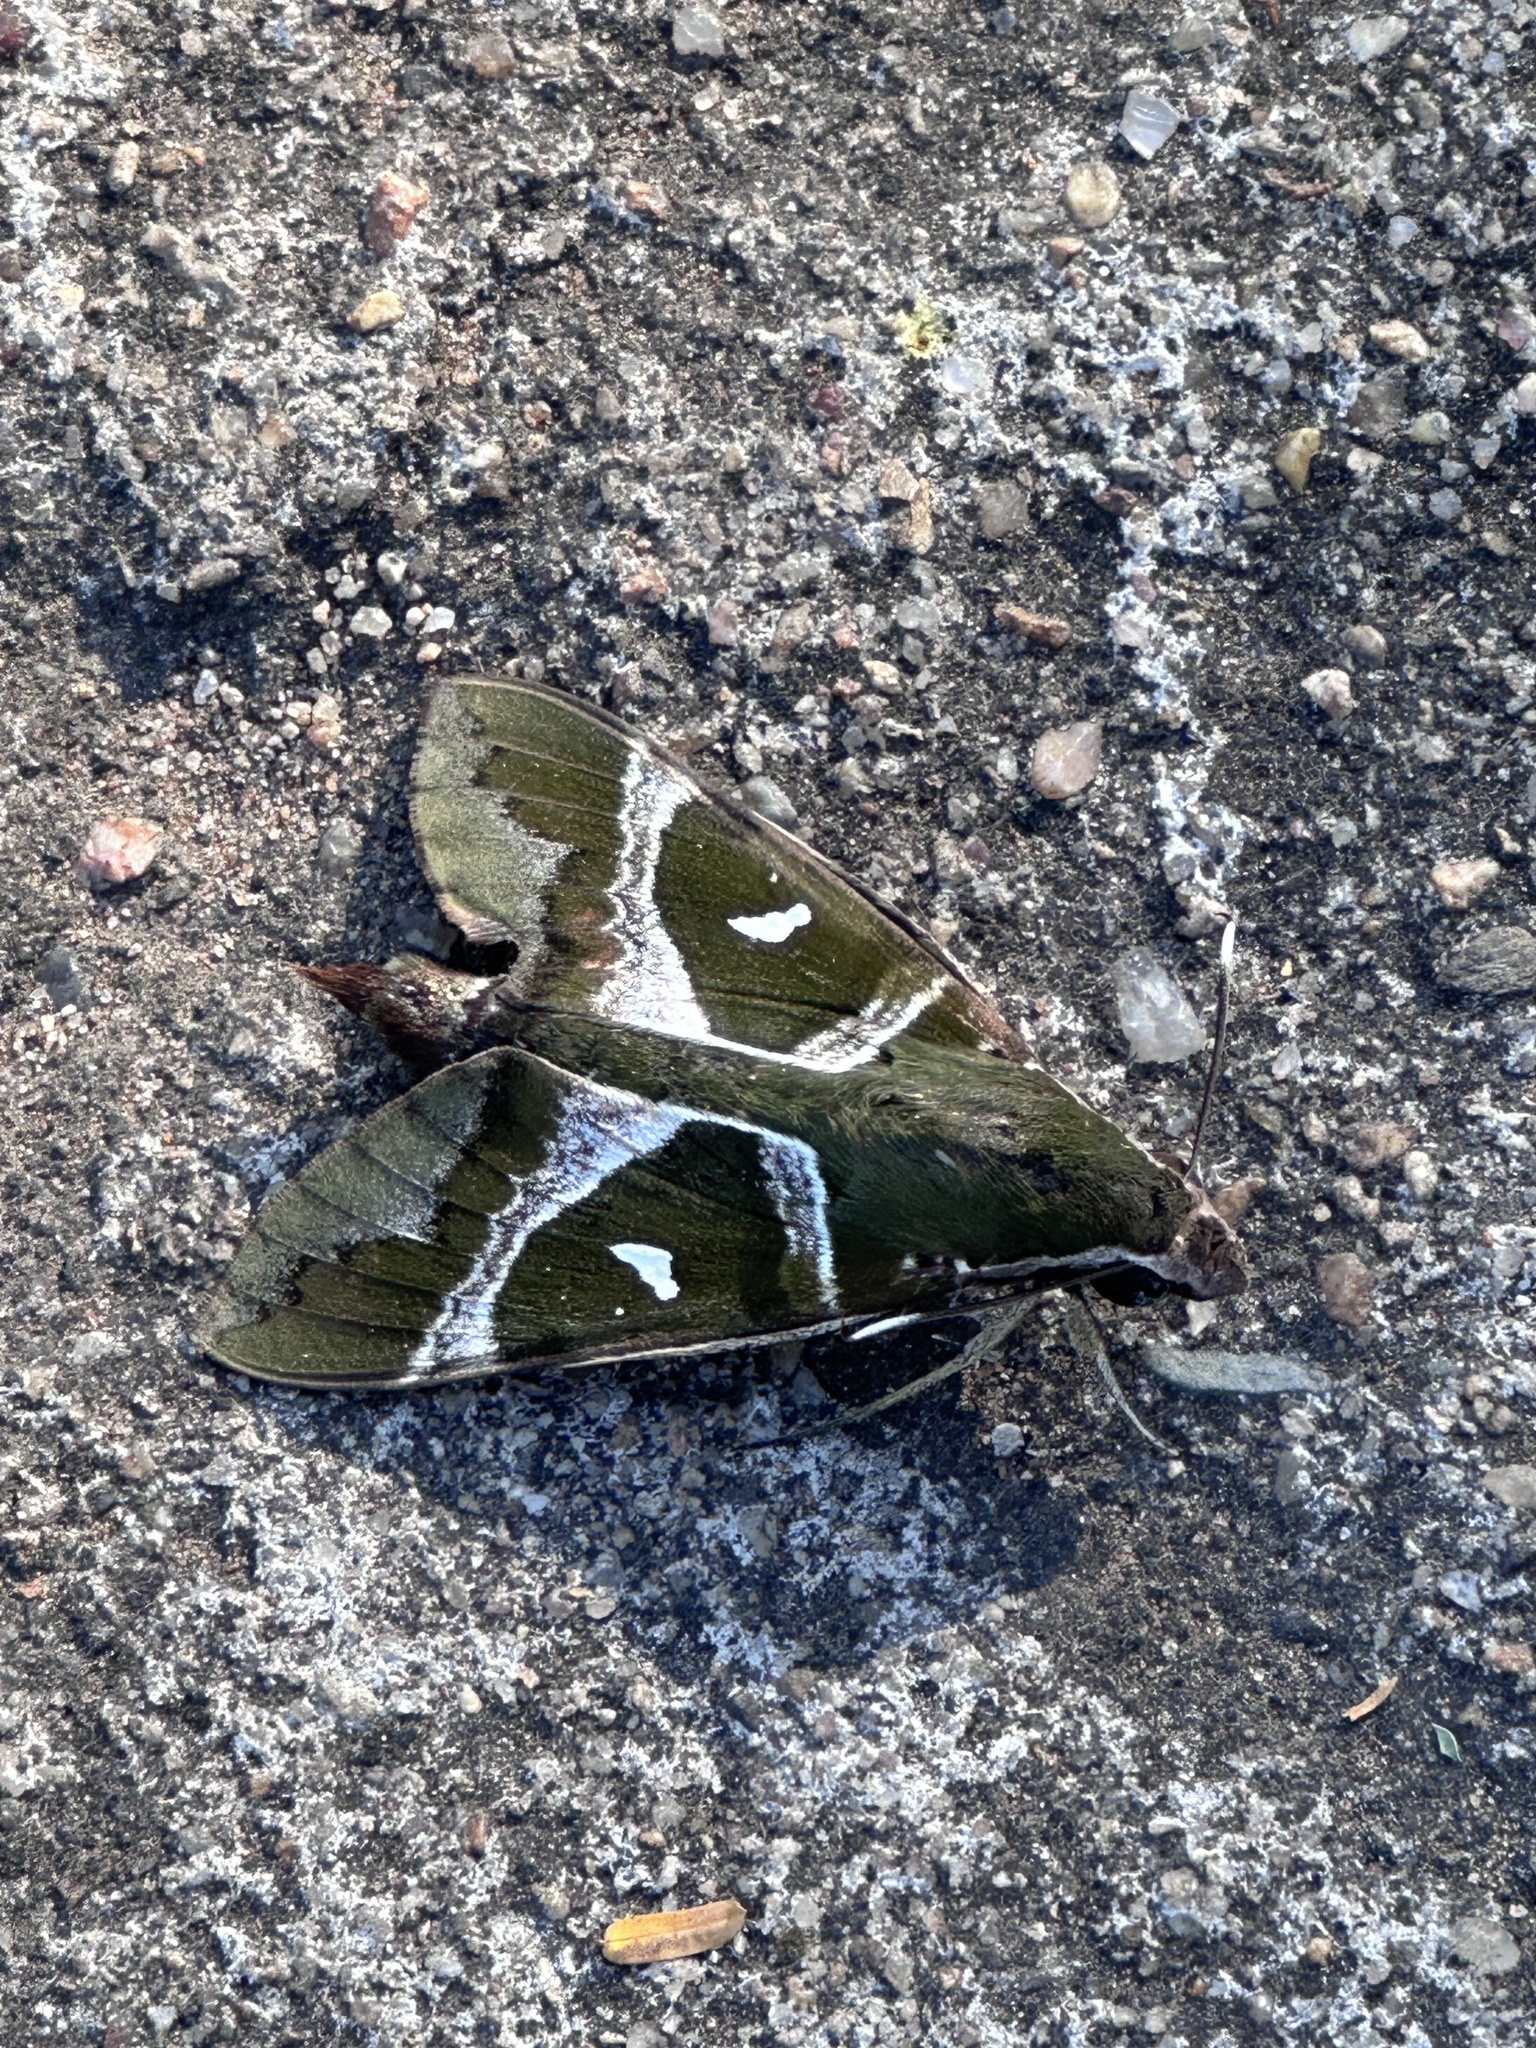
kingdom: Animalia
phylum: Arthropoda
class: Insecta
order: Lepidoptera
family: Sphingidae
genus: Nephele
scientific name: Nephele argentifera
